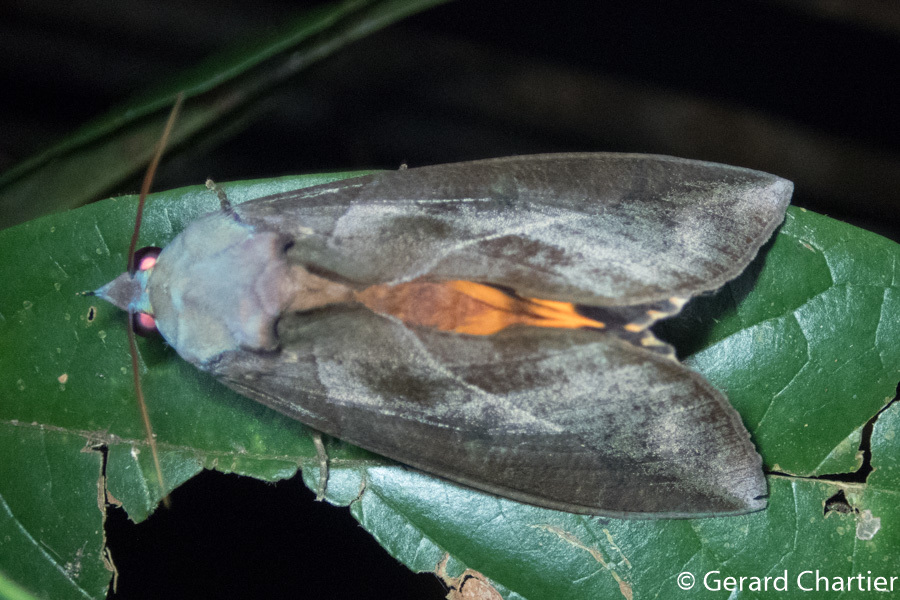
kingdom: Animalia
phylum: Arthropoda
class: Insecta
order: Lepidoptera
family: Erebidae
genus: Eudocima
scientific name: Eudocima phalonia
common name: Wasp
